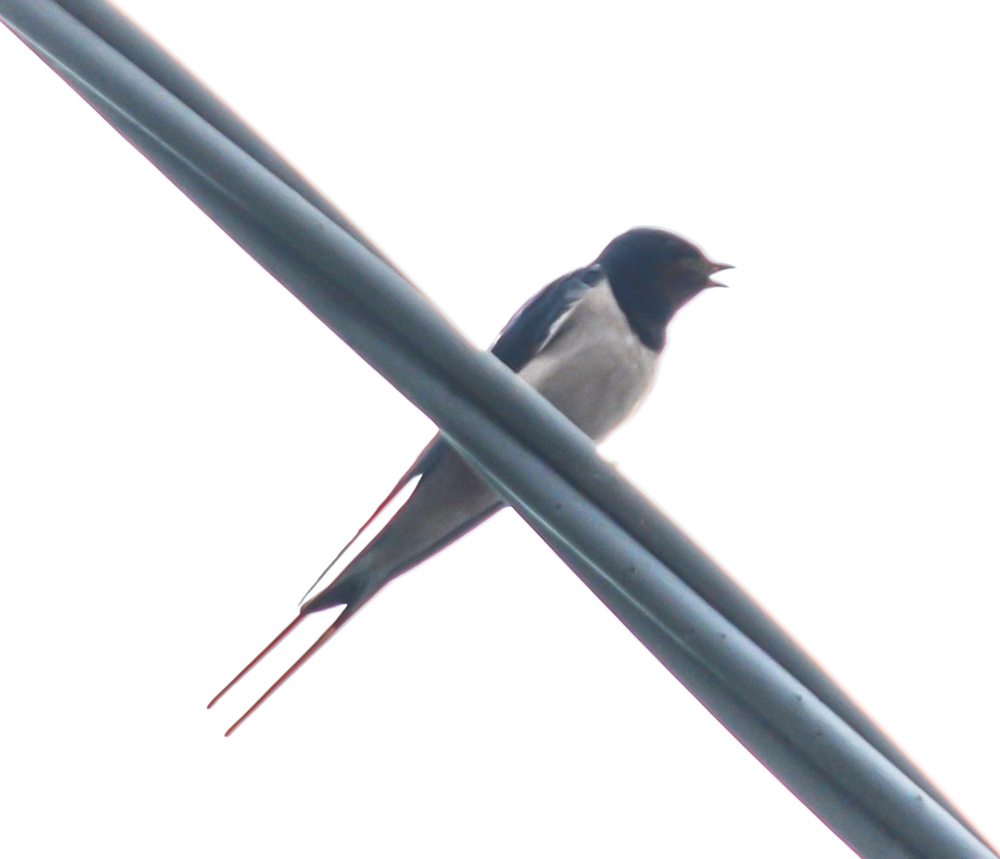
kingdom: Animalia
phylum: Chordata
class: Aves
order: Passeriformes
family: Hirundinidae
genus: Hirundo
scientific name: Hirundo rustica
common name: Barn swallow
